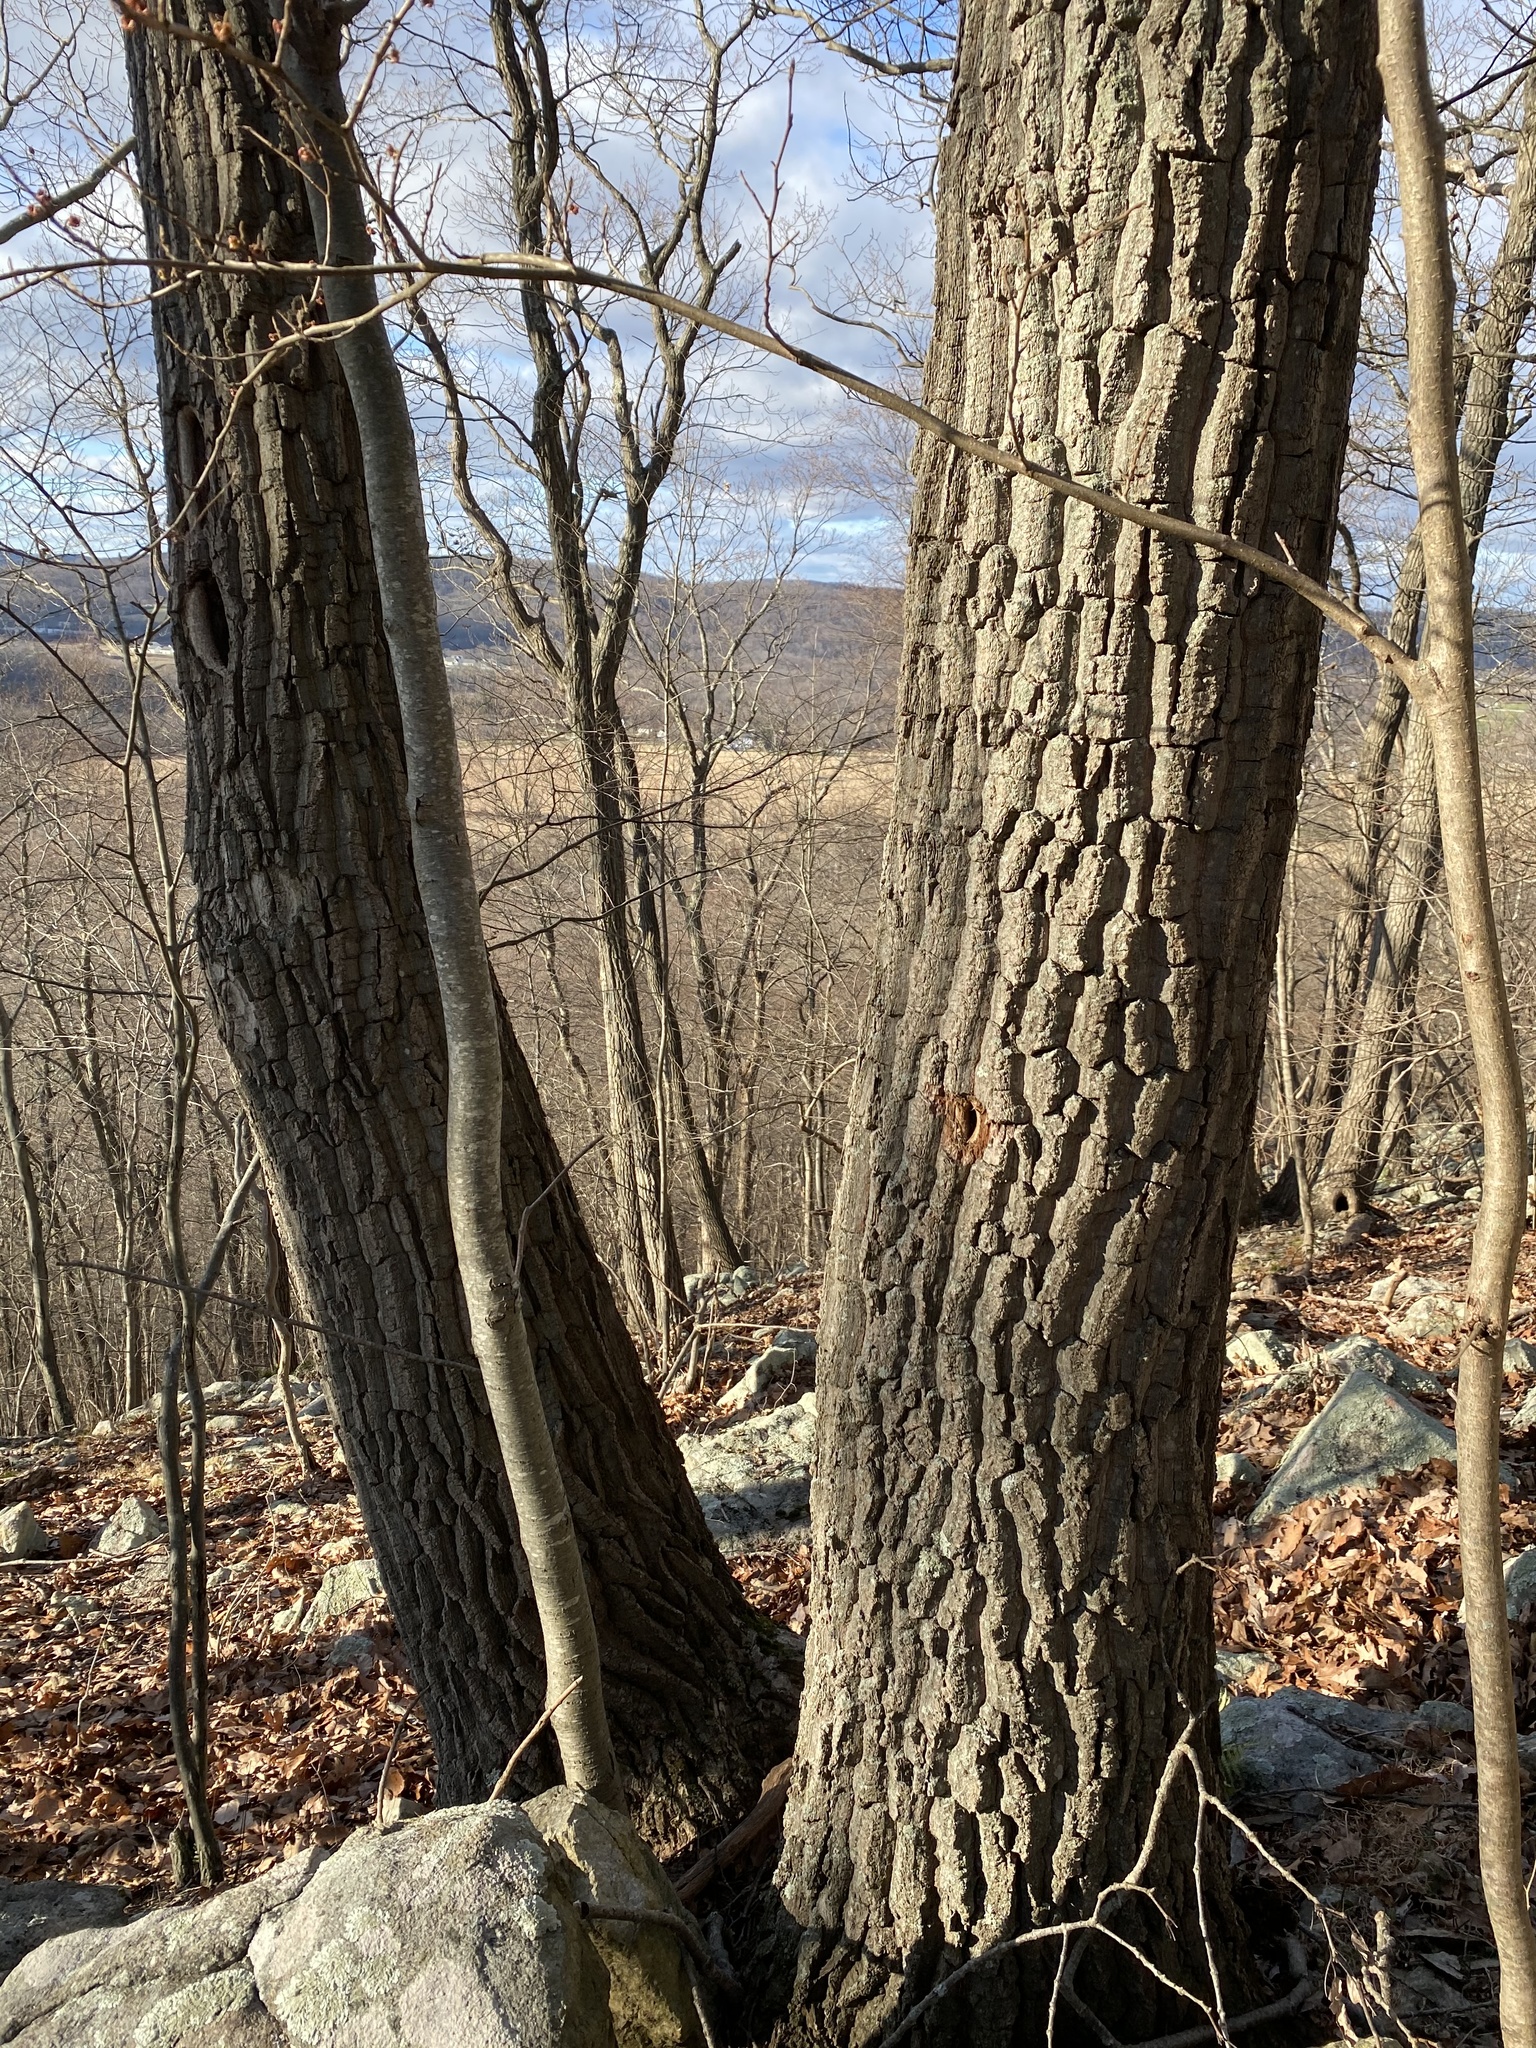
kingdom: Plantae
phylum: Tracheophyta
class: Magnoliopsida
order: Fagales
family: Fagaceae
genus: Quercus
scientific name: Quercus montana
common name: Chestnut oak
